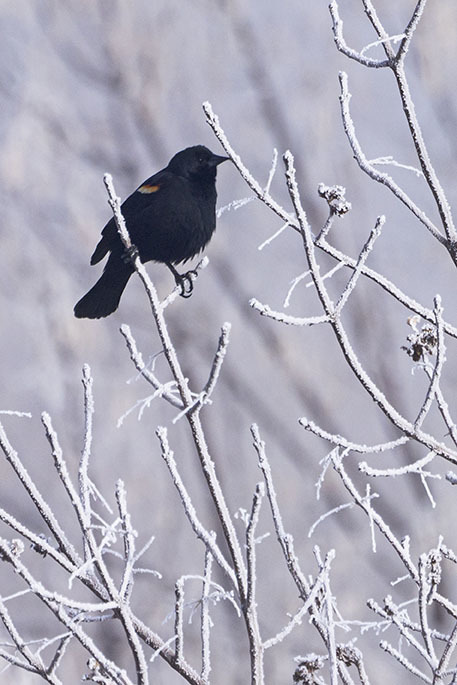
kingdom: Animalia
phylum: Chordata
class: Aves
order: Passeriformes
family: Icteridae
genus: Agelaius
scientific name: Agelaius phoeniceus
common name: Red-winged blackbird
